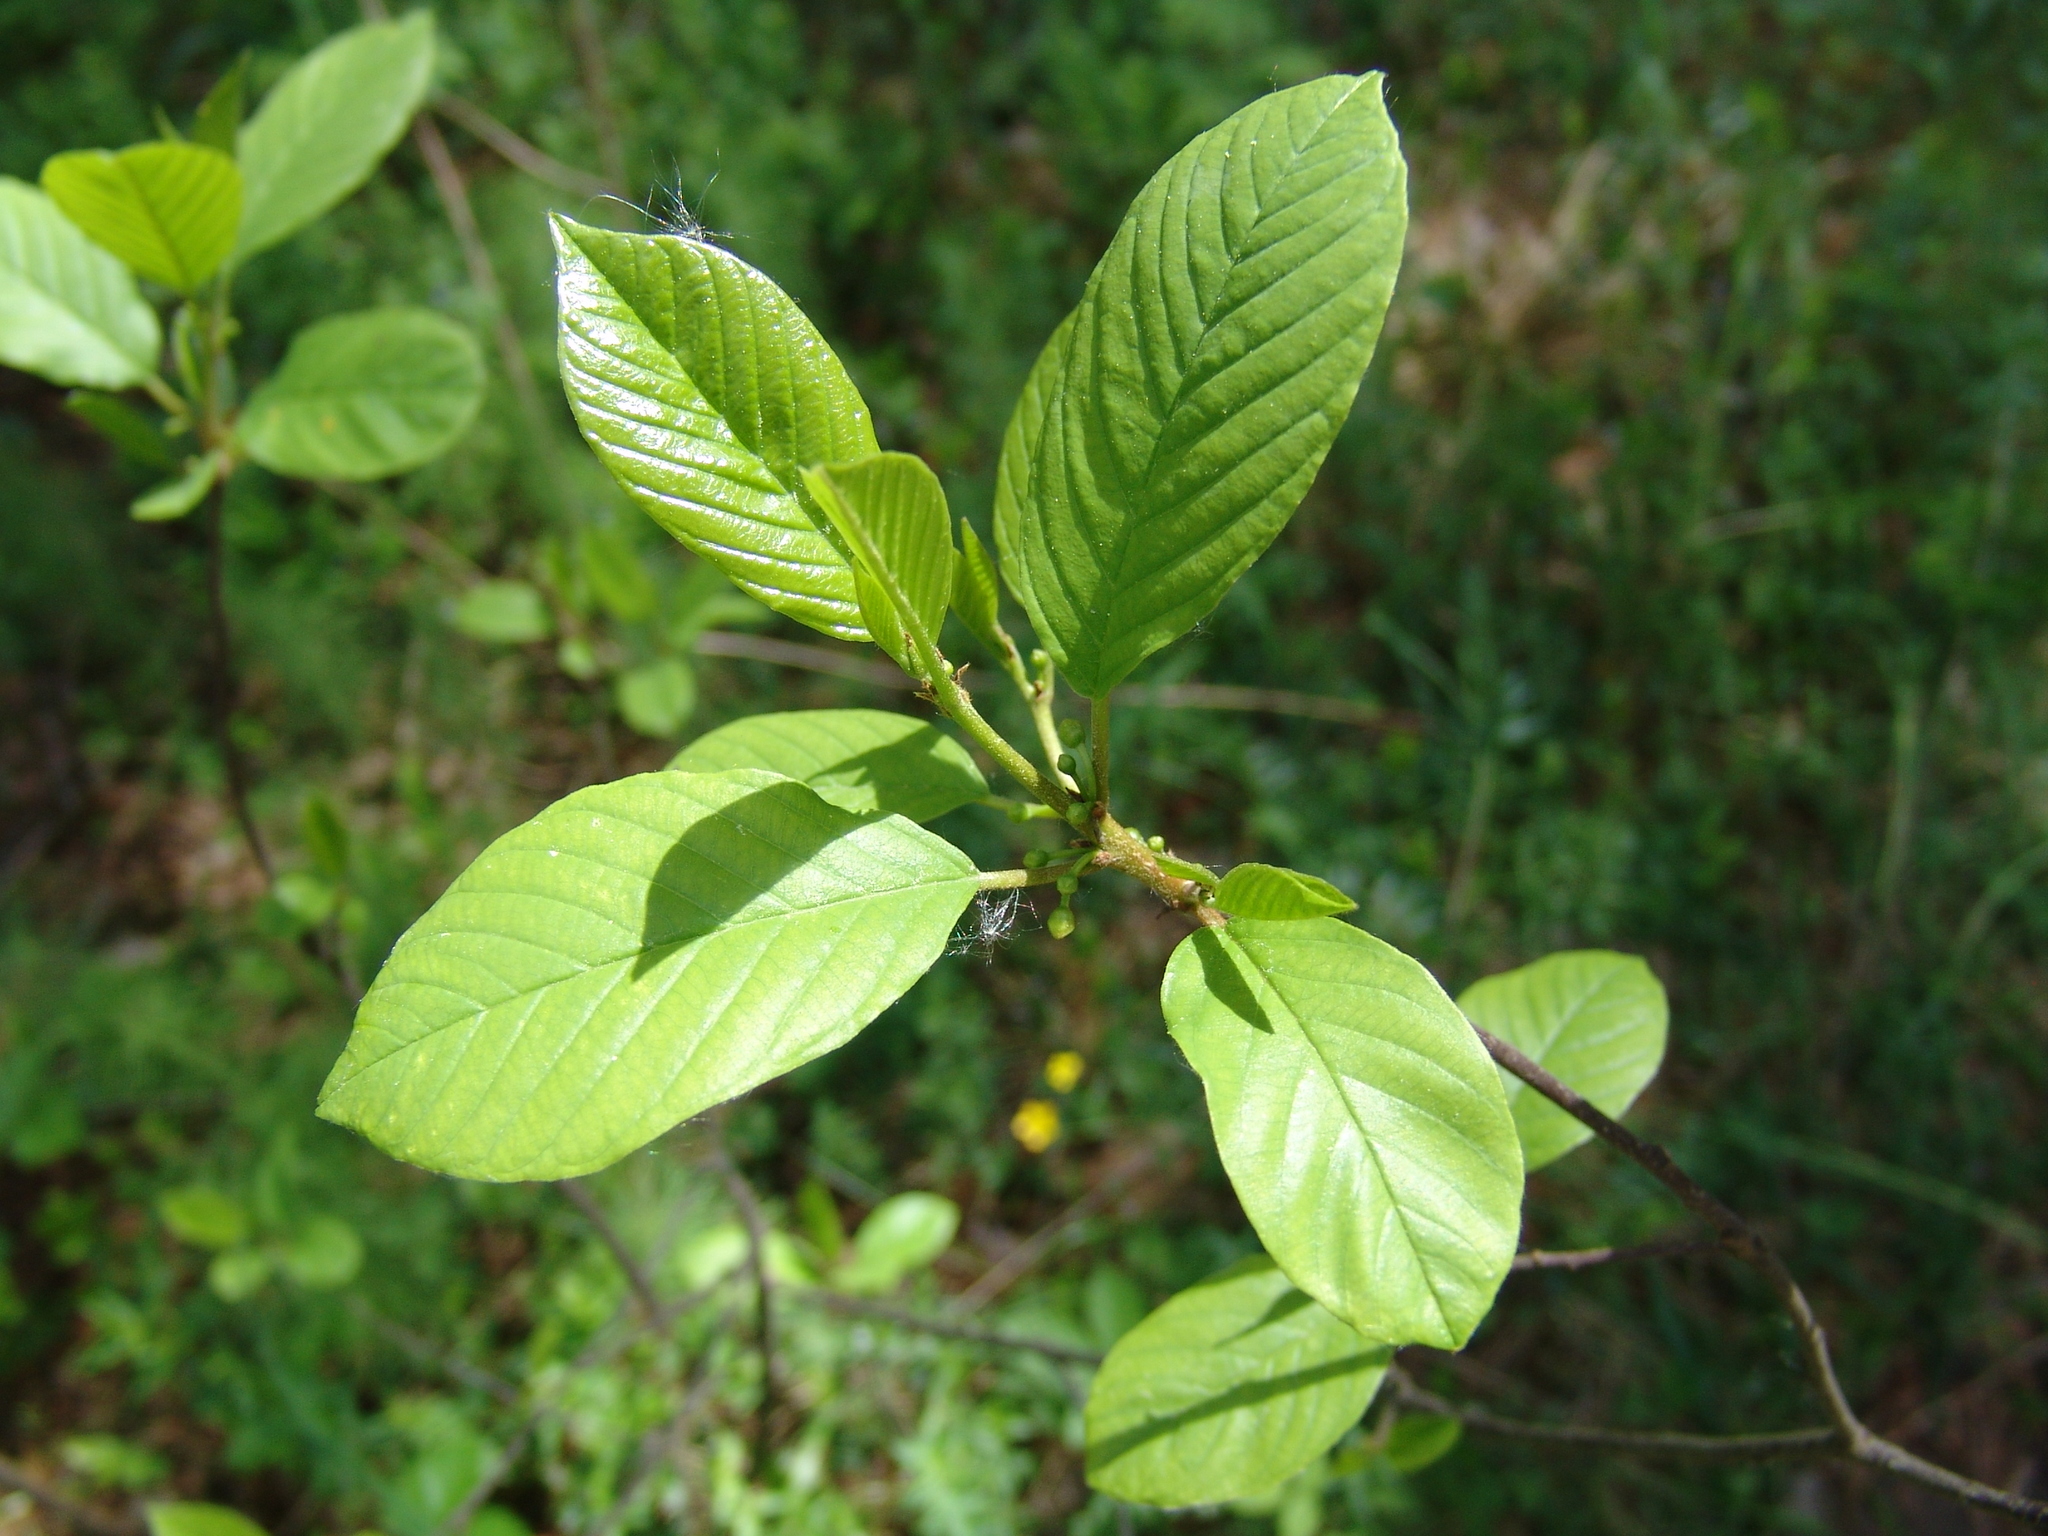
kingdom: Plantae
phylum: Tracheophyta
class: Magnoliopsida
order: Rosales
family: Rhamnaceae
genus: Frangula
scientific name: Frangula alnus
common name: Alder buckthorn
